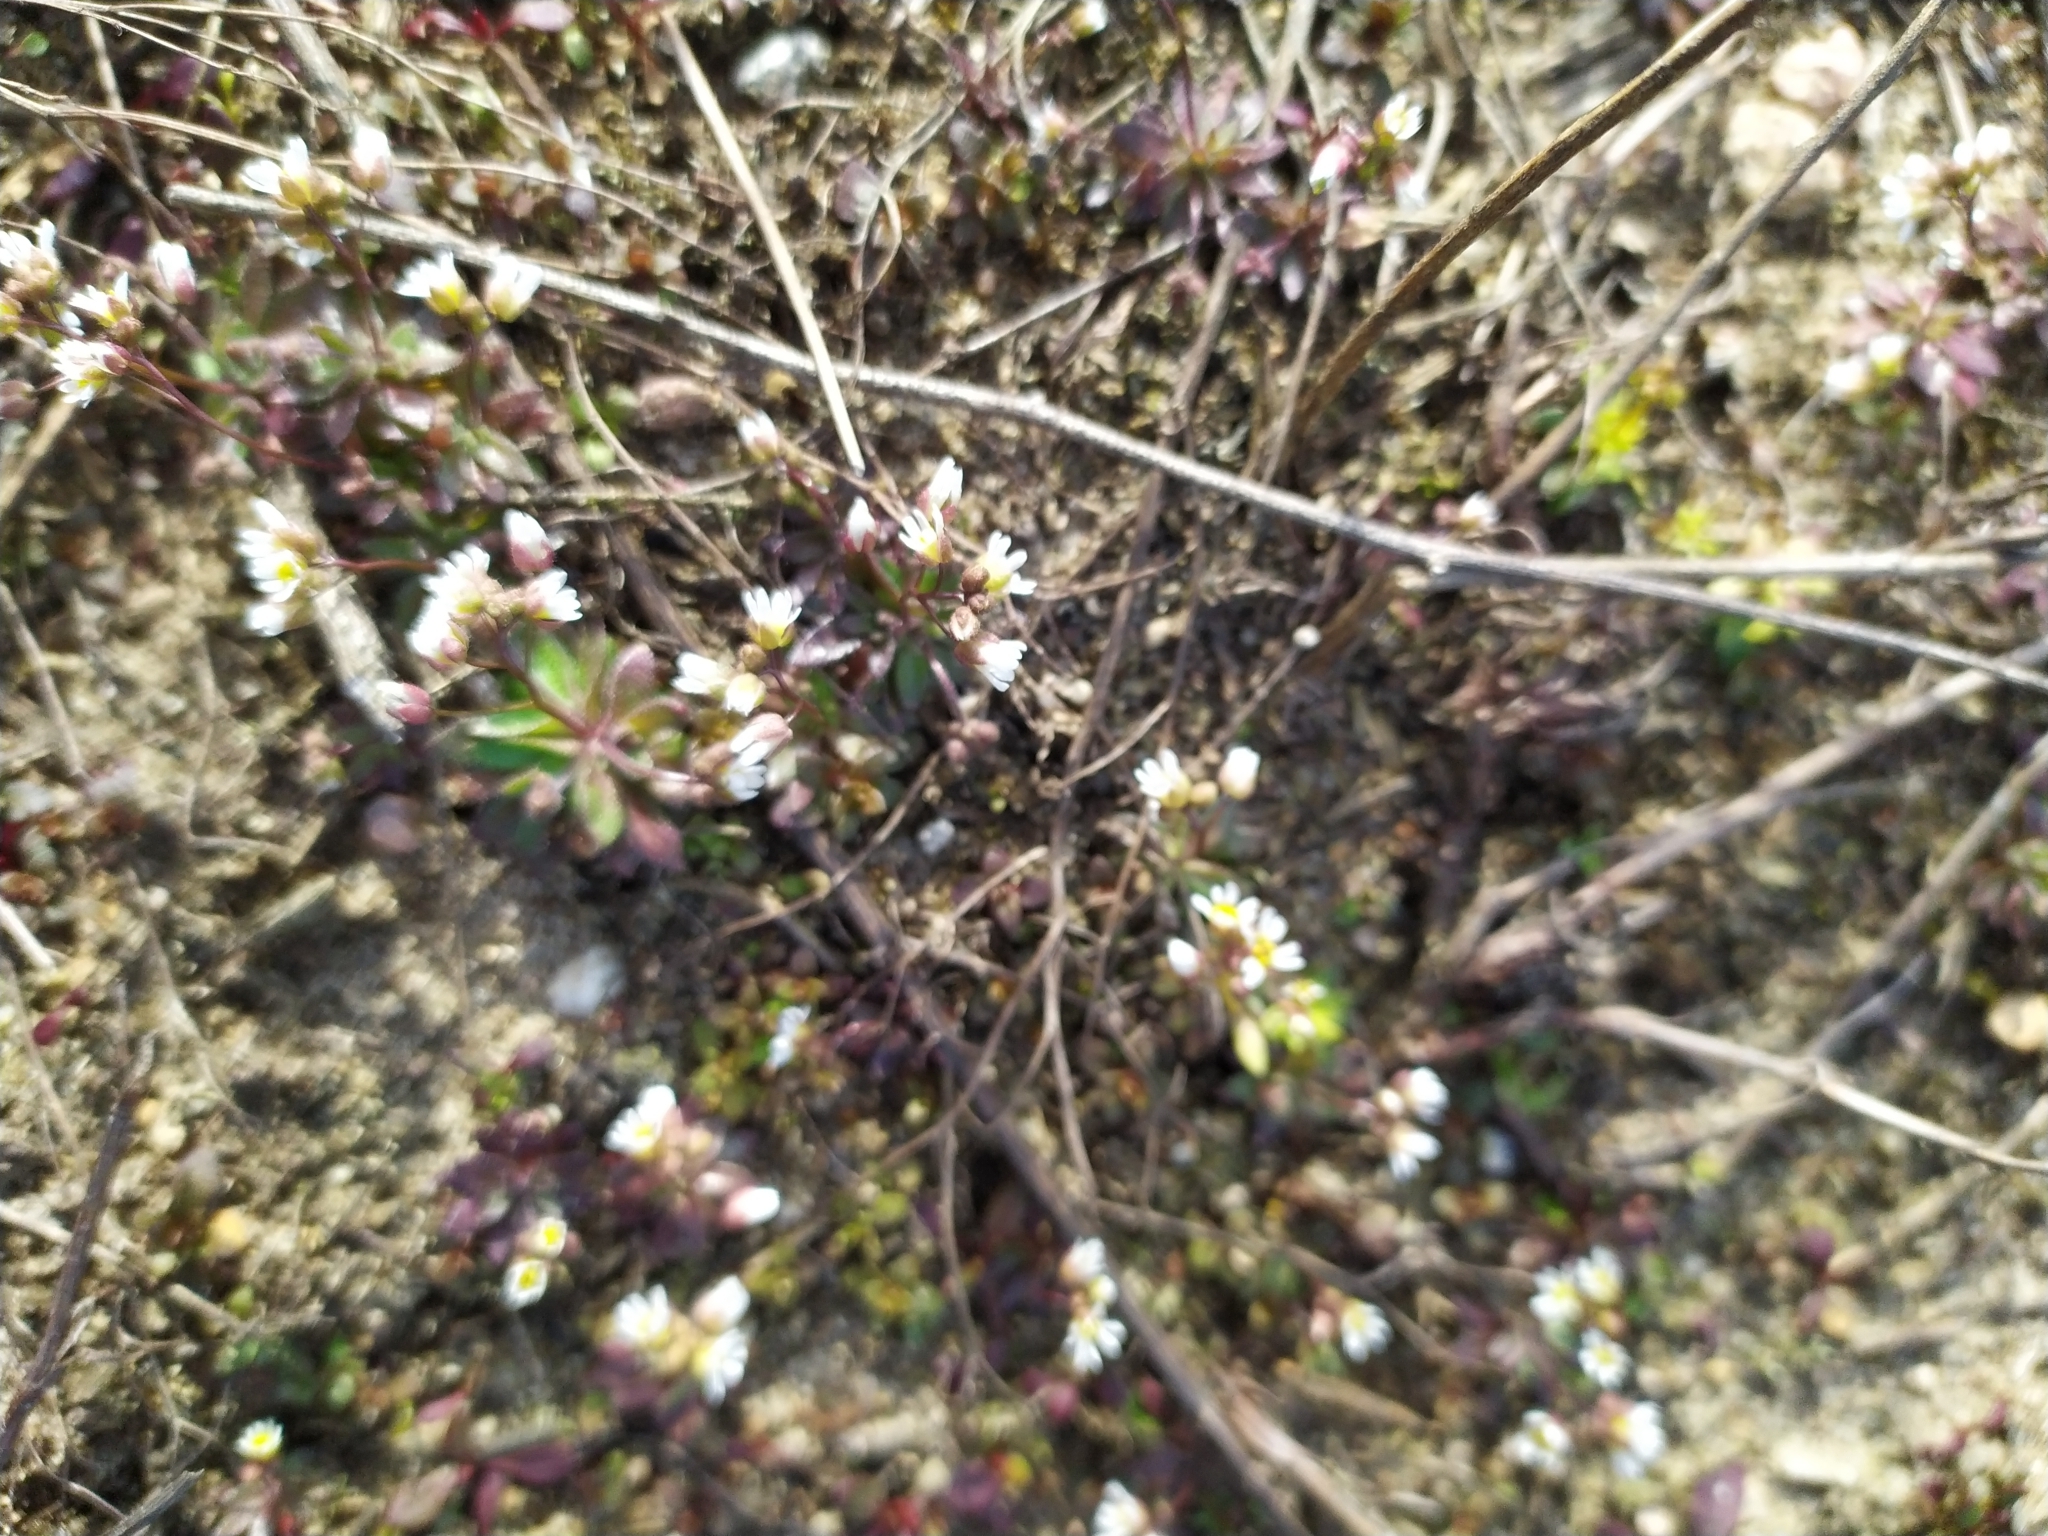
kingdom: Plantae
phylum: Tracheophyta
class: Magnoliopsida
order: Brassicales
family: Brassicaceae
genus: Draba
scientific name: Draba verna
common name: Spring draba
